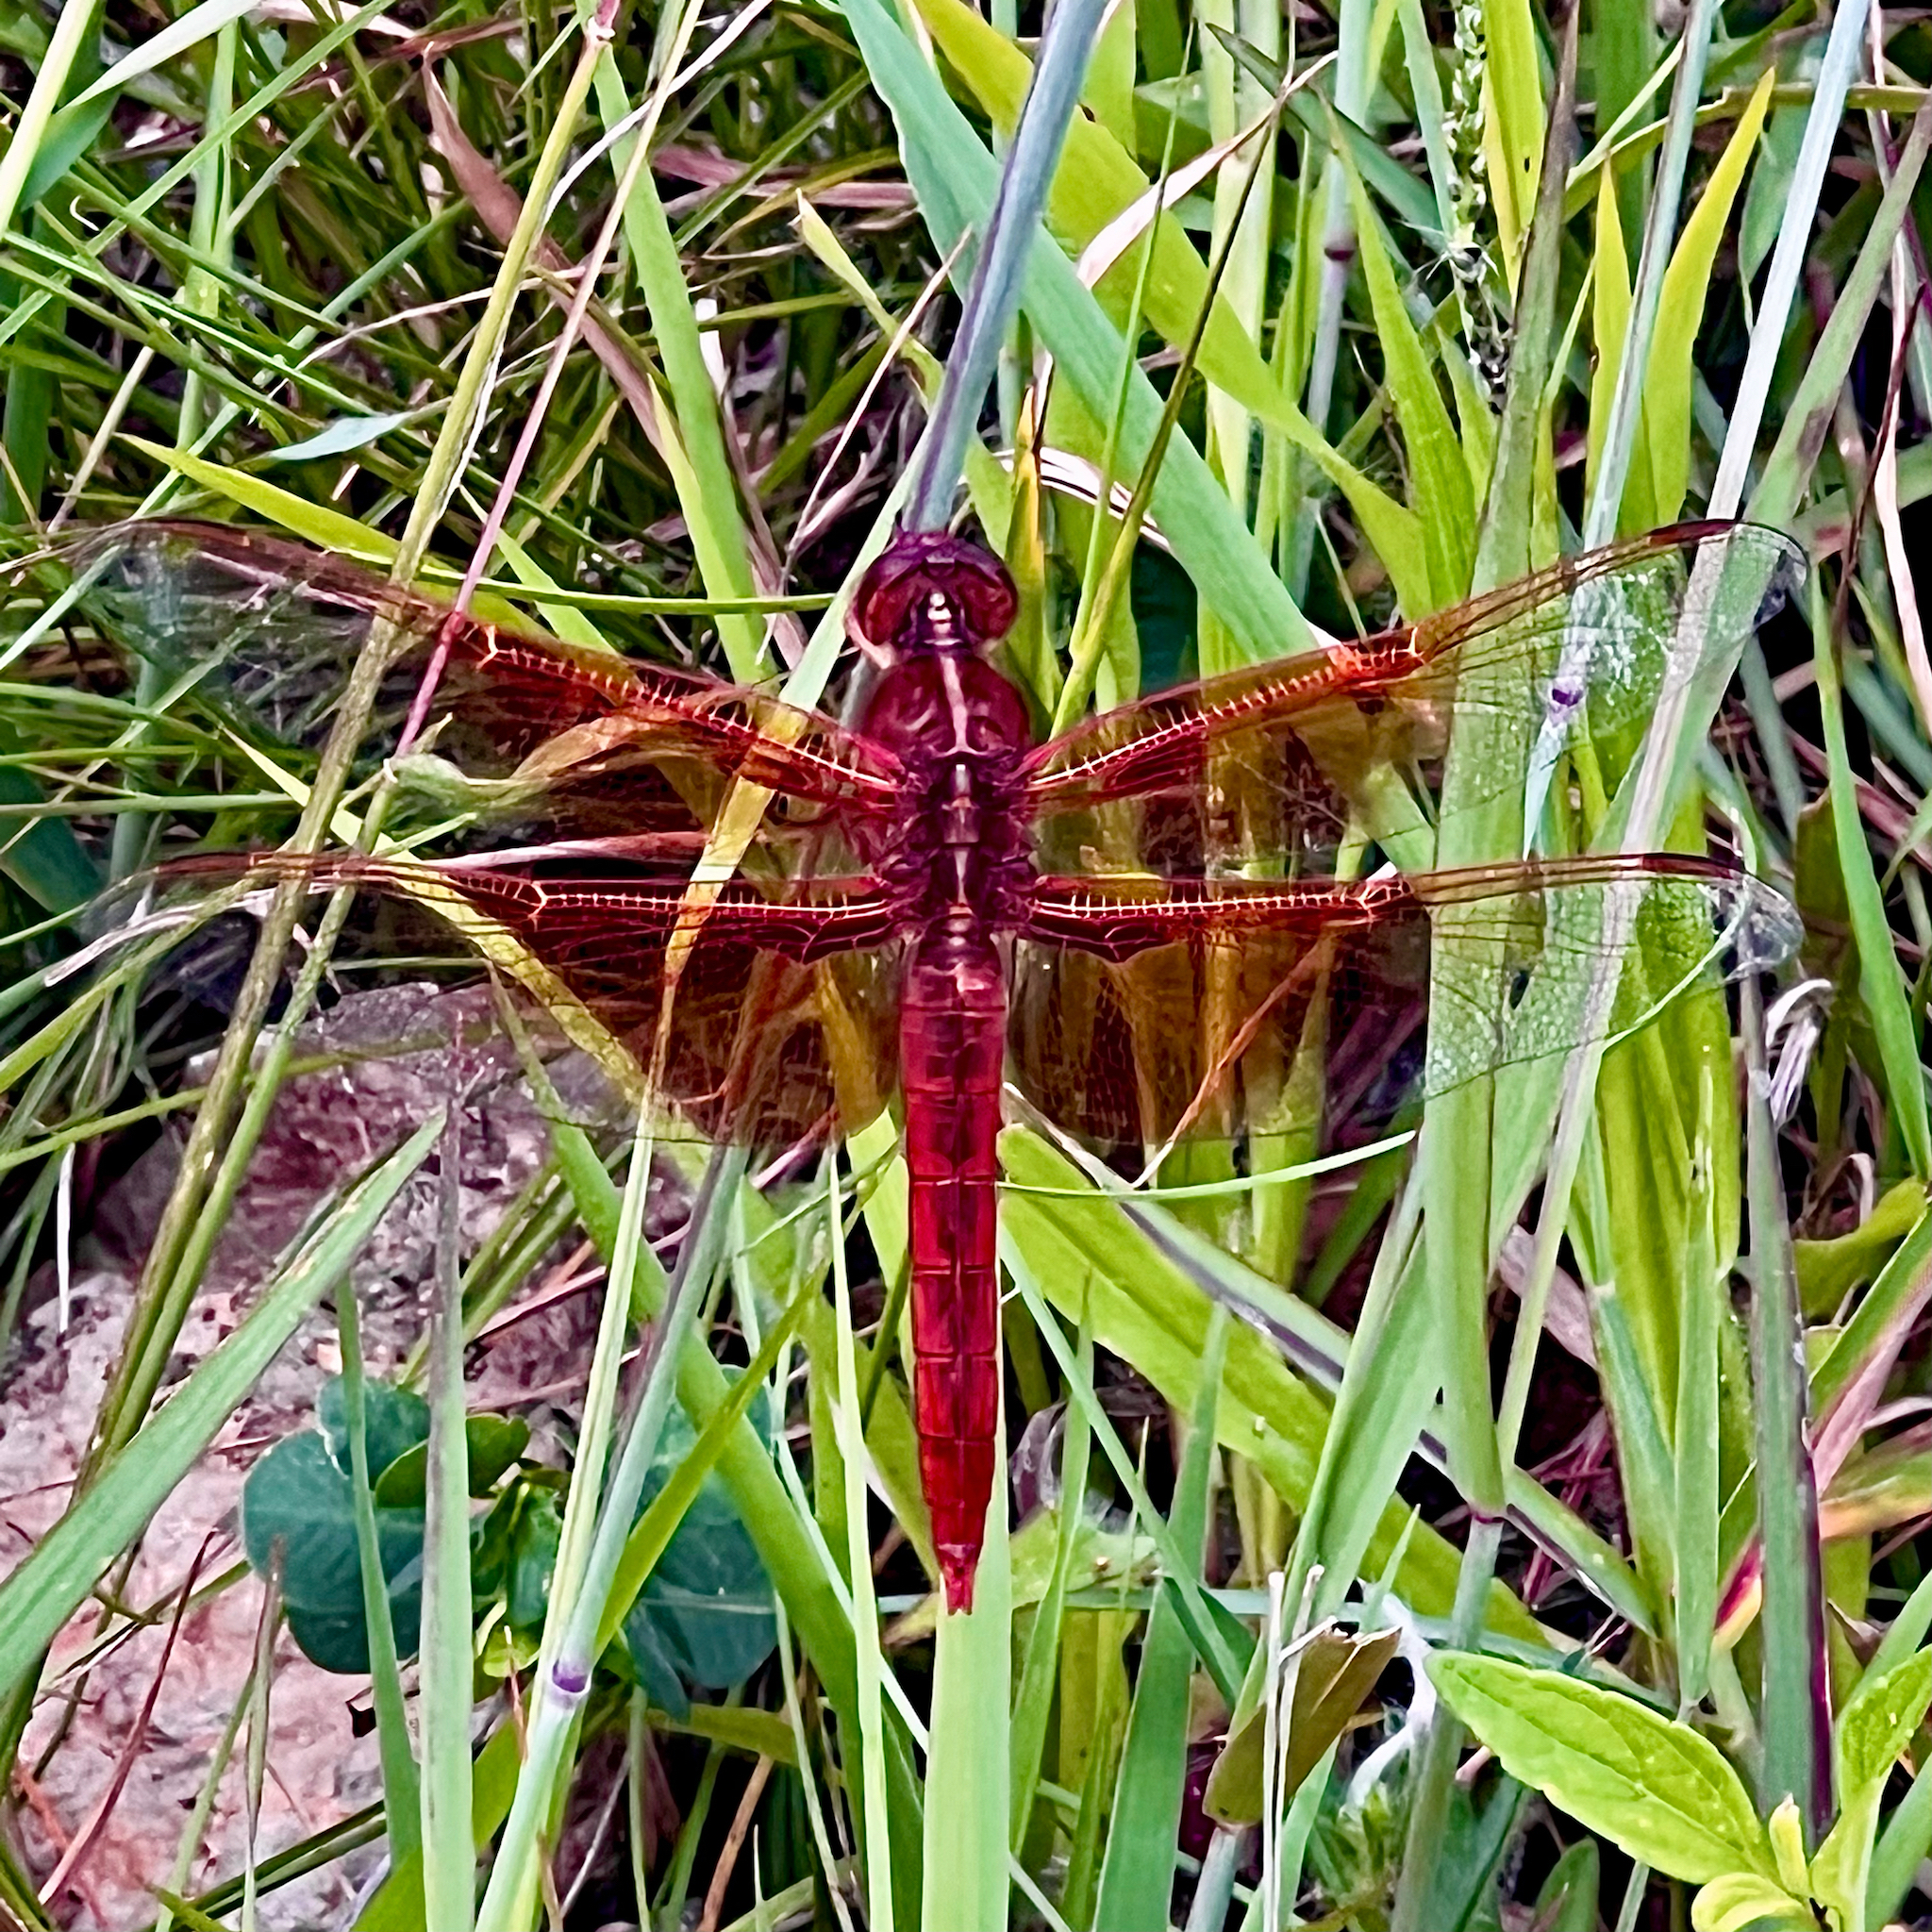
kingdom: Animalia
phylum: Arthropoda
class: Insecta
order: Odonata
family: Libellulidae
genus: Libellula
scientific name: Libellula saturata
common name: Flame skimmer
